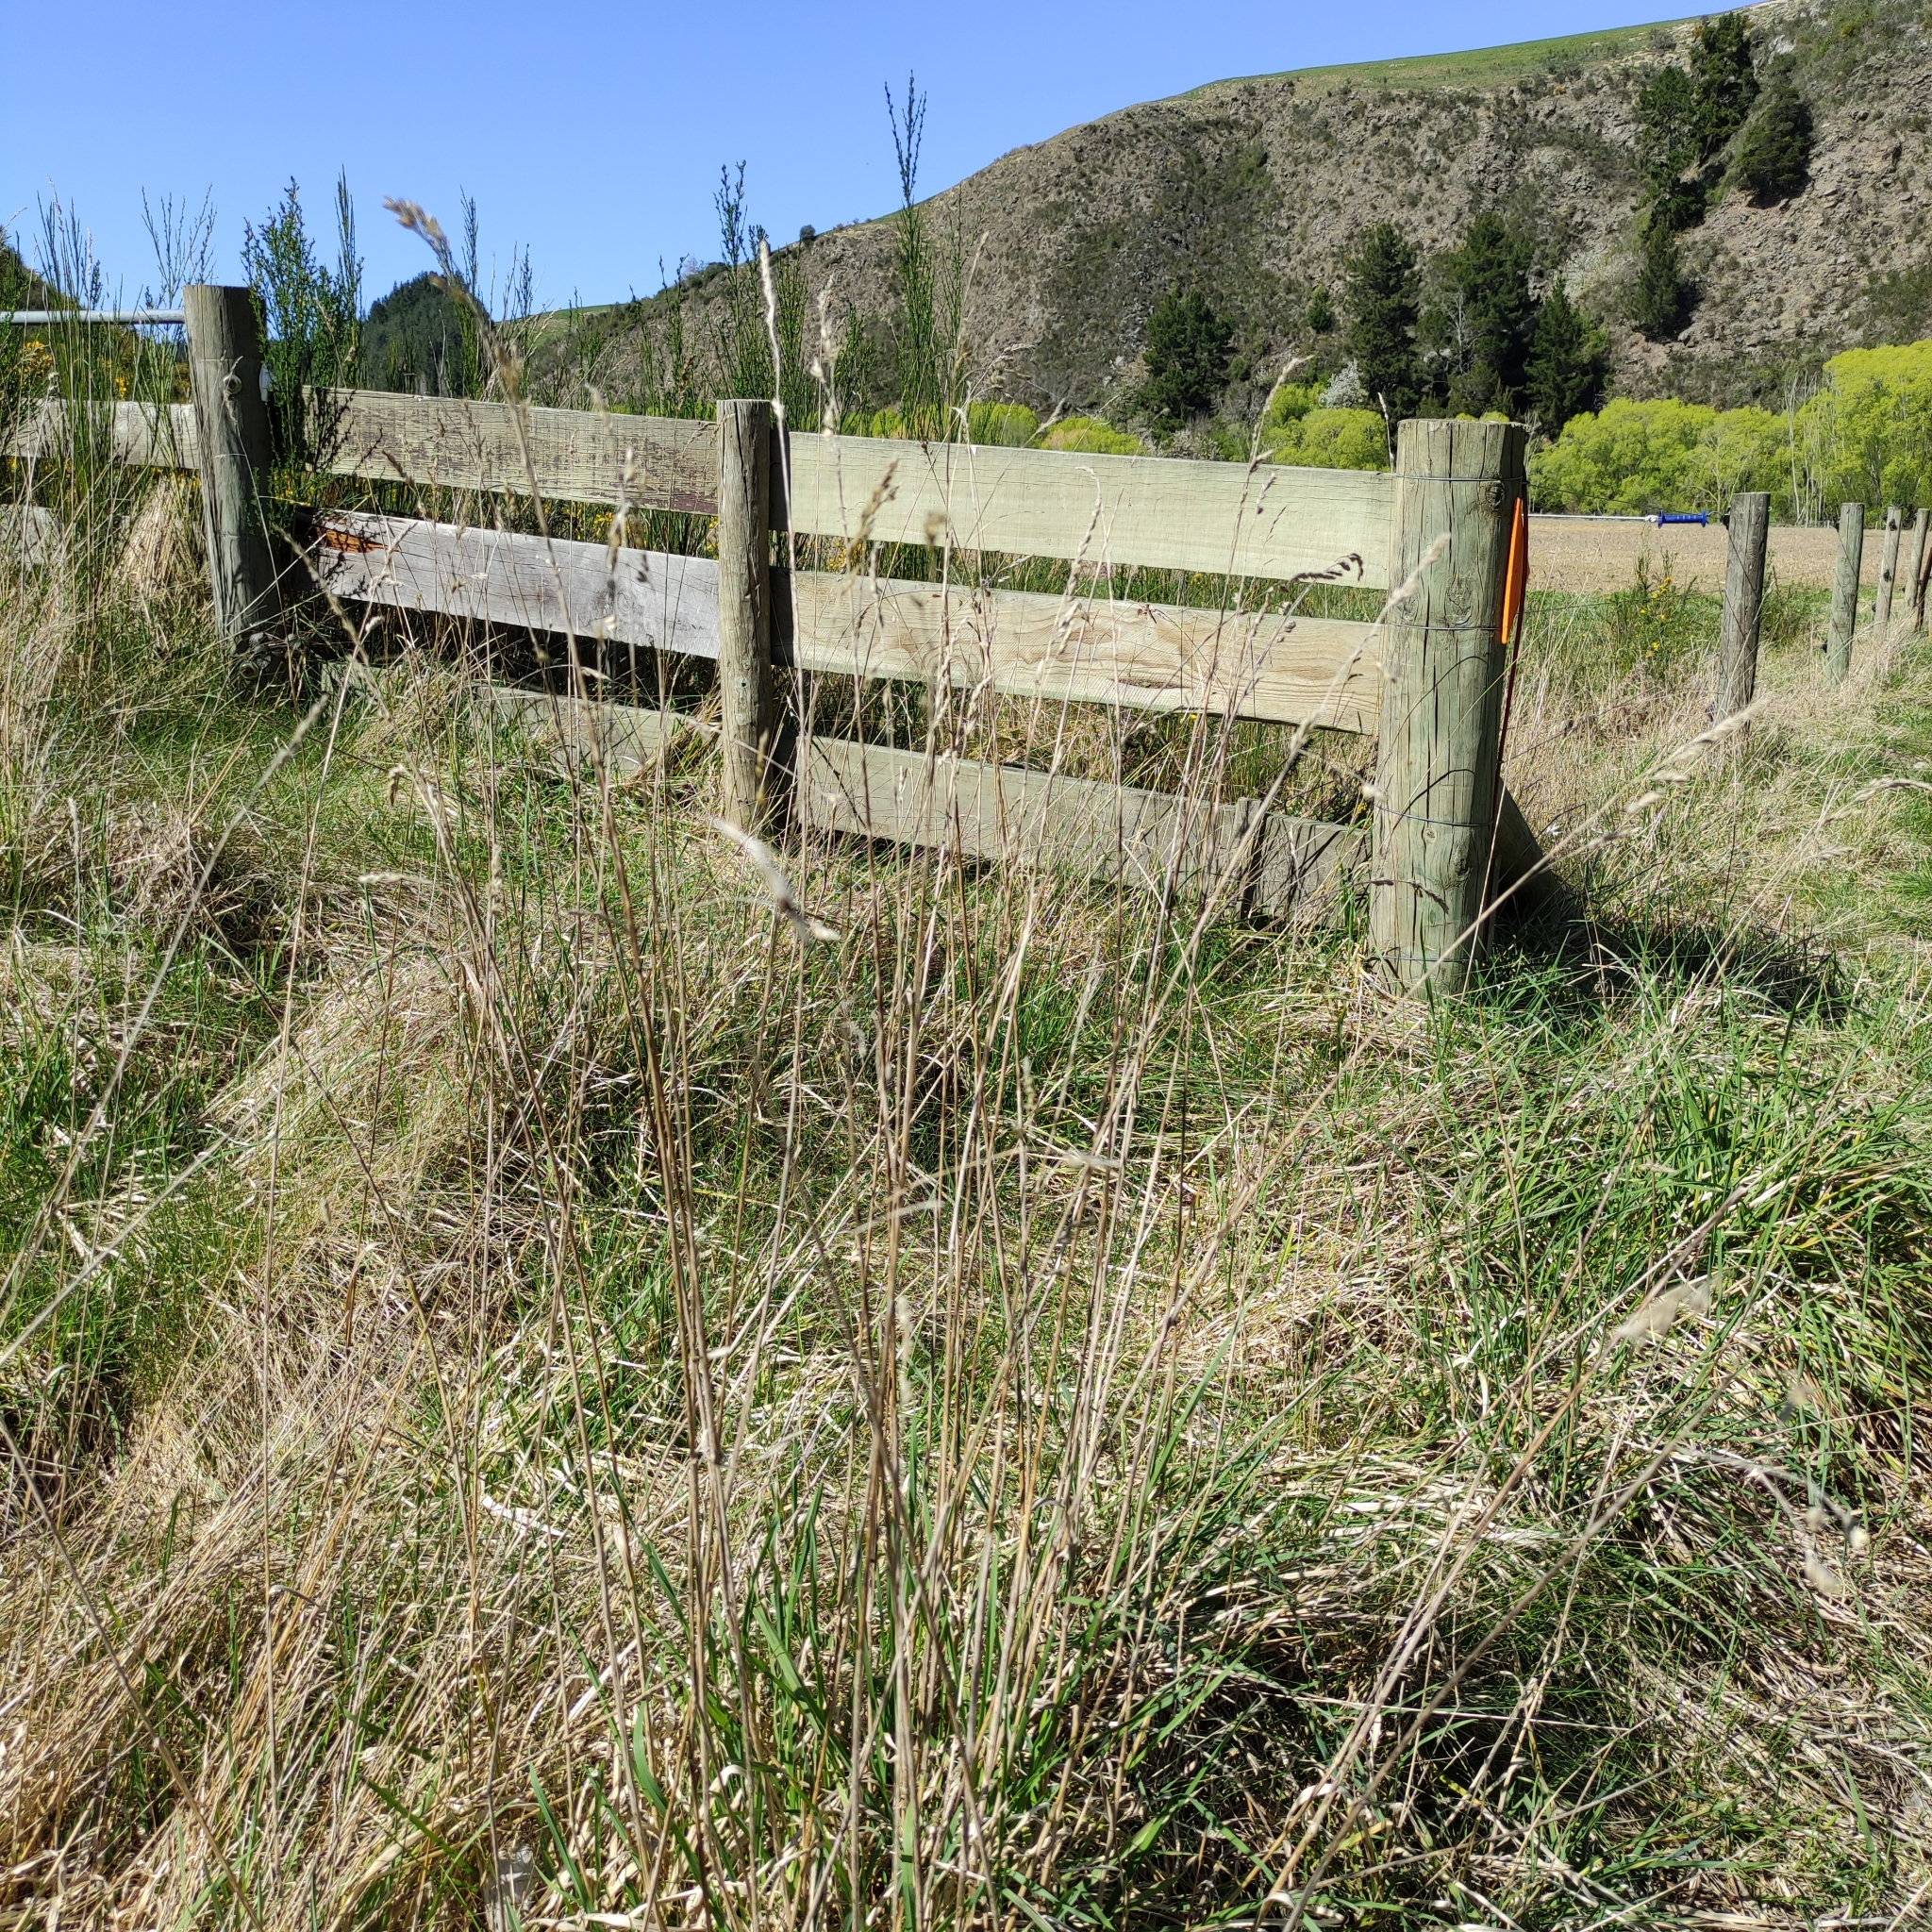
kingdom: Plantae
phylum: Tracheophyta
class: Liliopsida
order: Poales
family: Poaceae
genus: Dactylis
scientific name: Dactylis glomerata
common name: Orchardgrass
